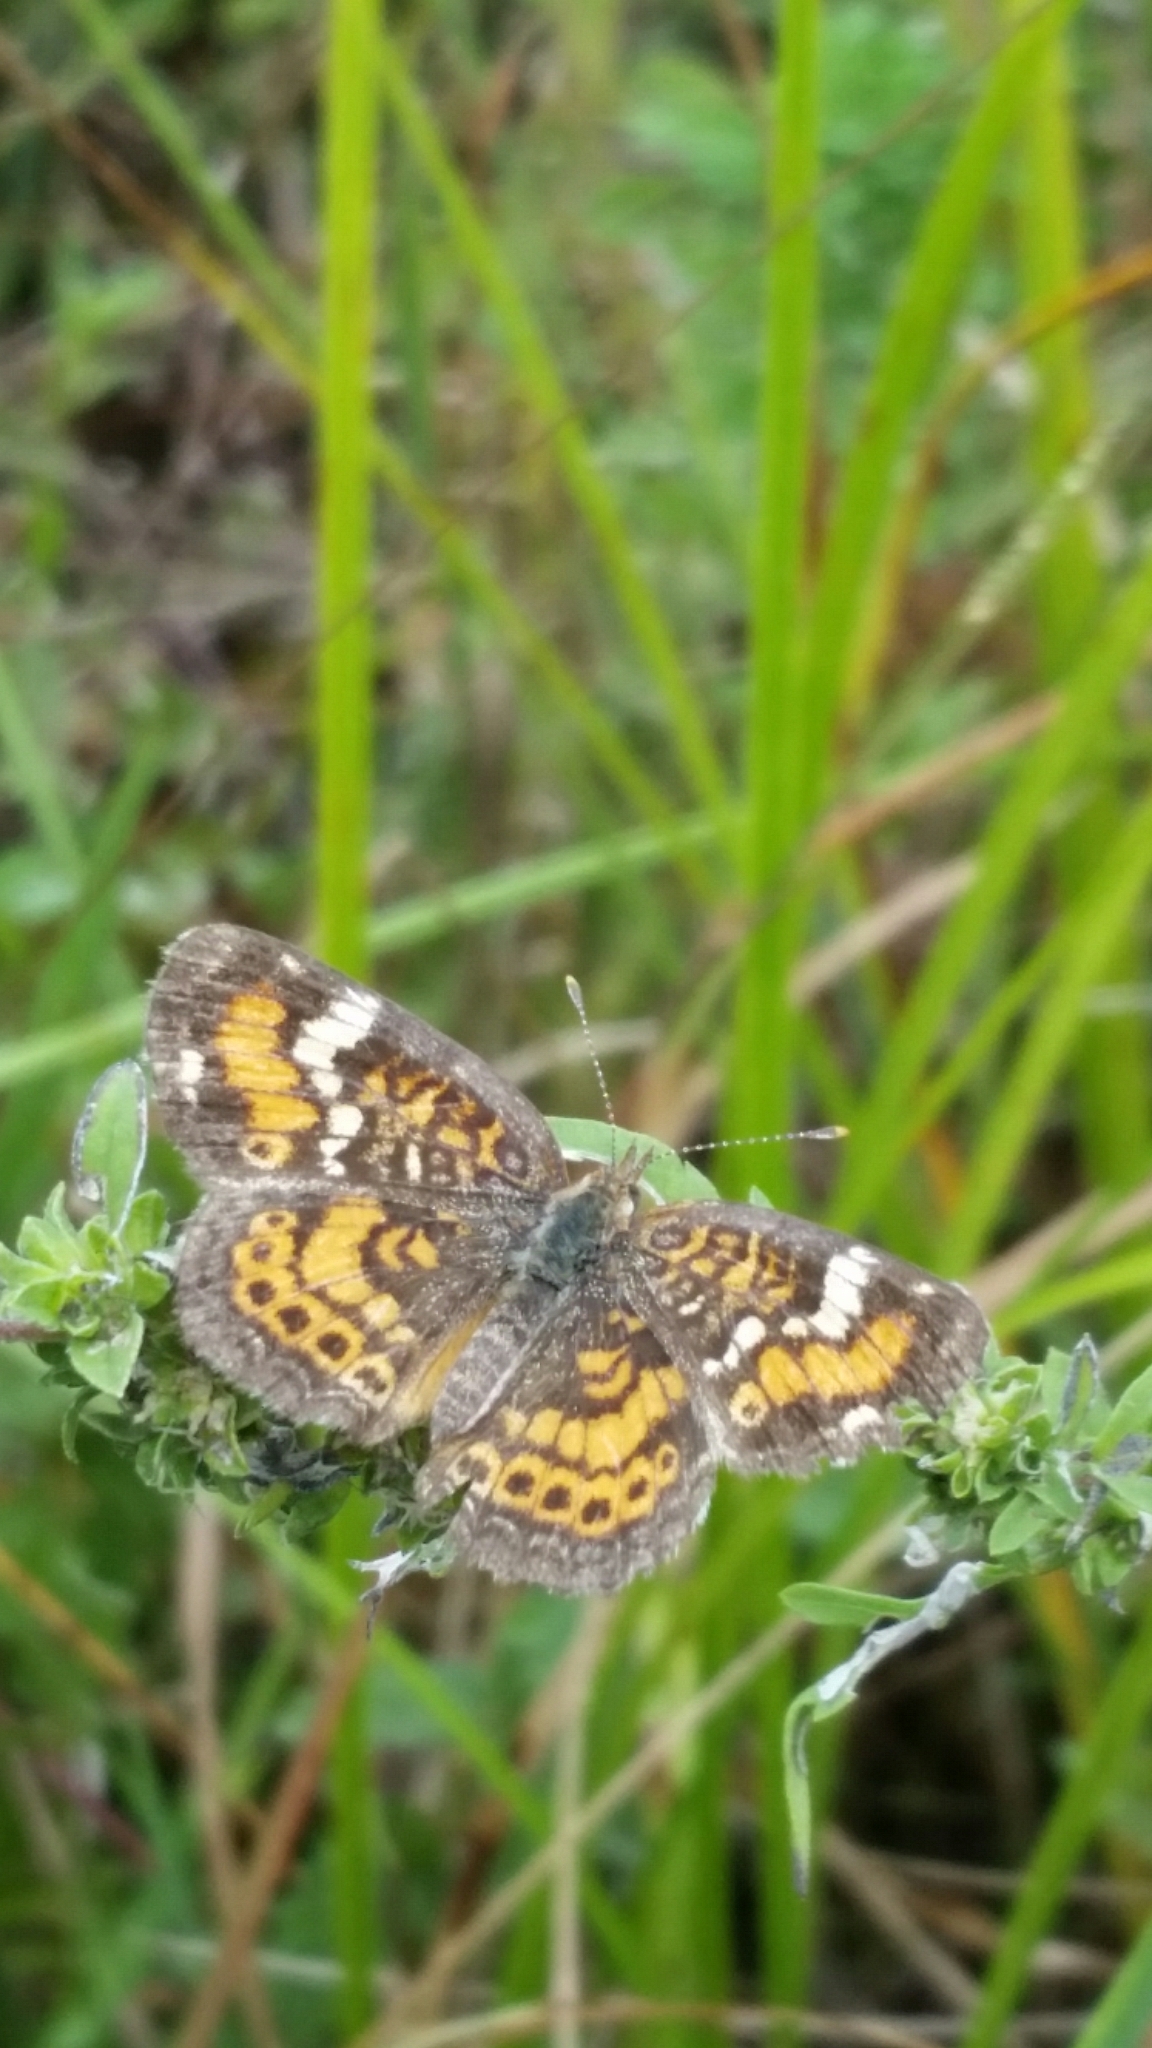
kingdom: Animalia
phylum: Arthropoda
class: Insecta
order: Lepidoptera
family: Nymphalidae
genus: Phyciodes
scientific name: Phyciodes phaon
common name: Phaon crescent
